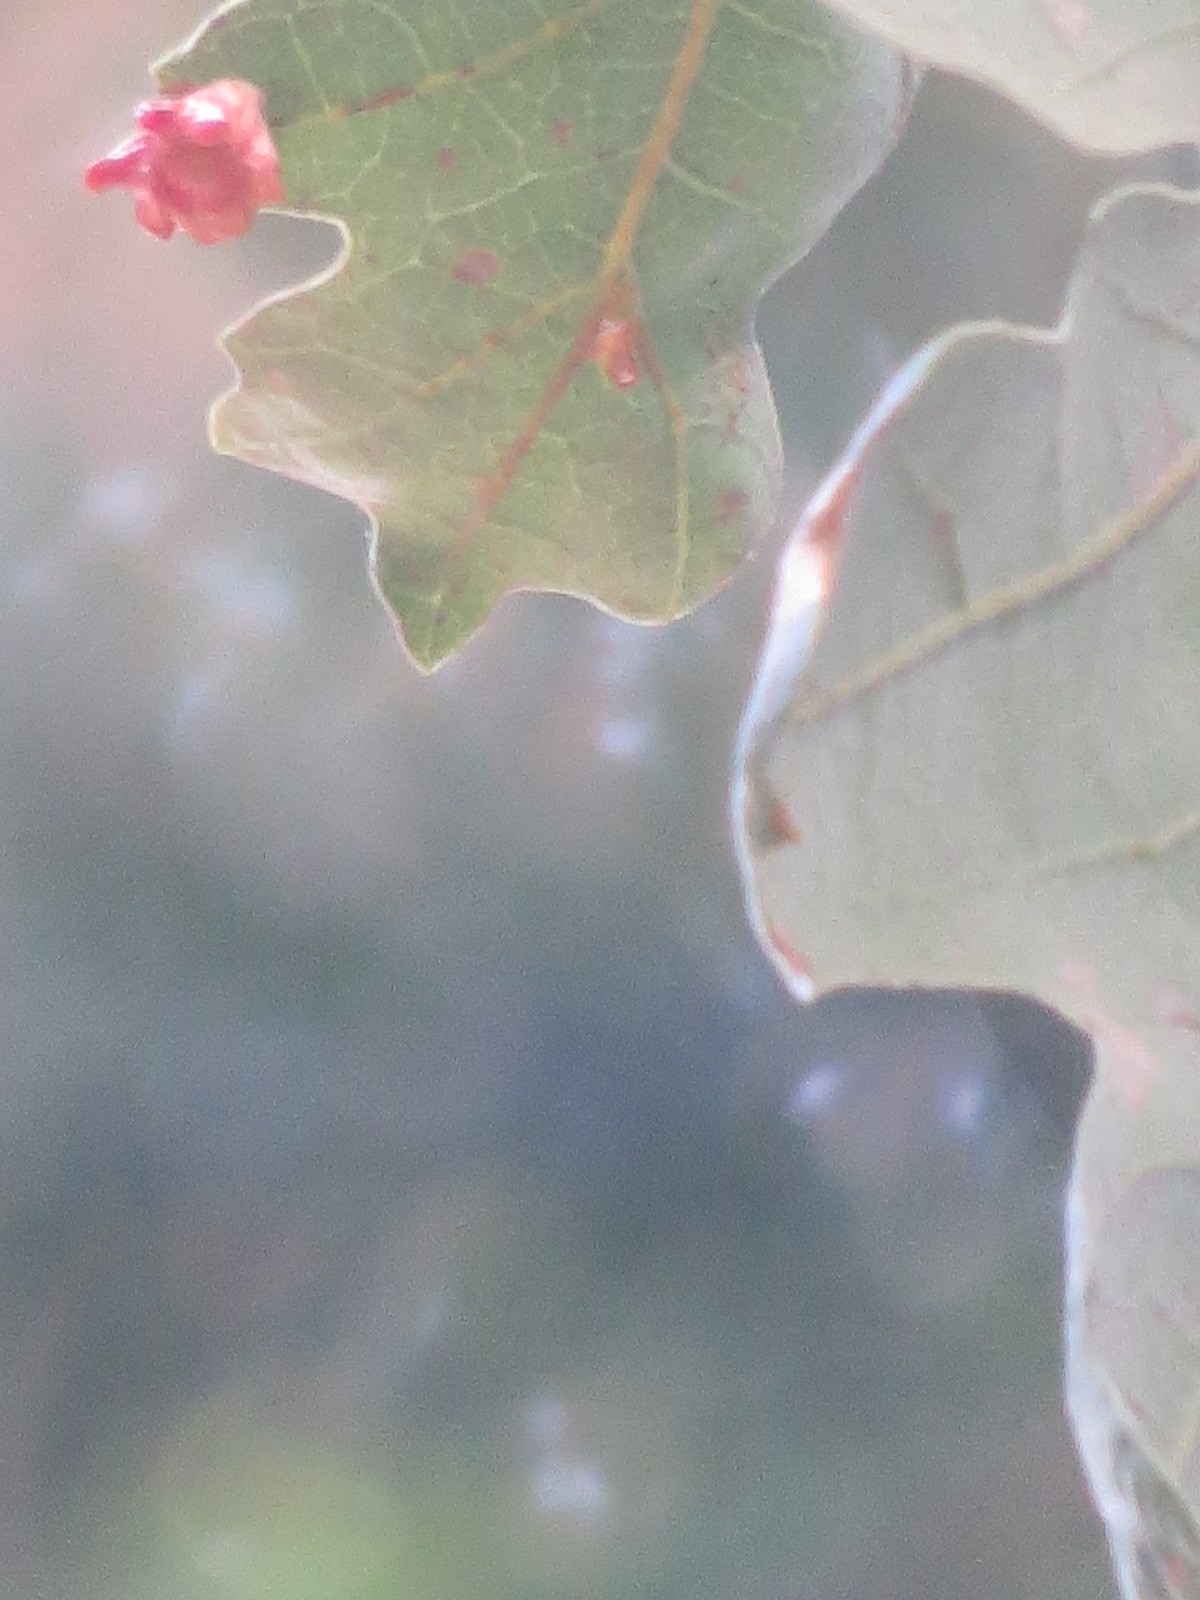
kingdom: Animalia
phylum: Arthropoda
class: Insecta
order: Hymenoptera
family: Cynipidae
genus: Cynips
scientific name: Cynips douglasi
